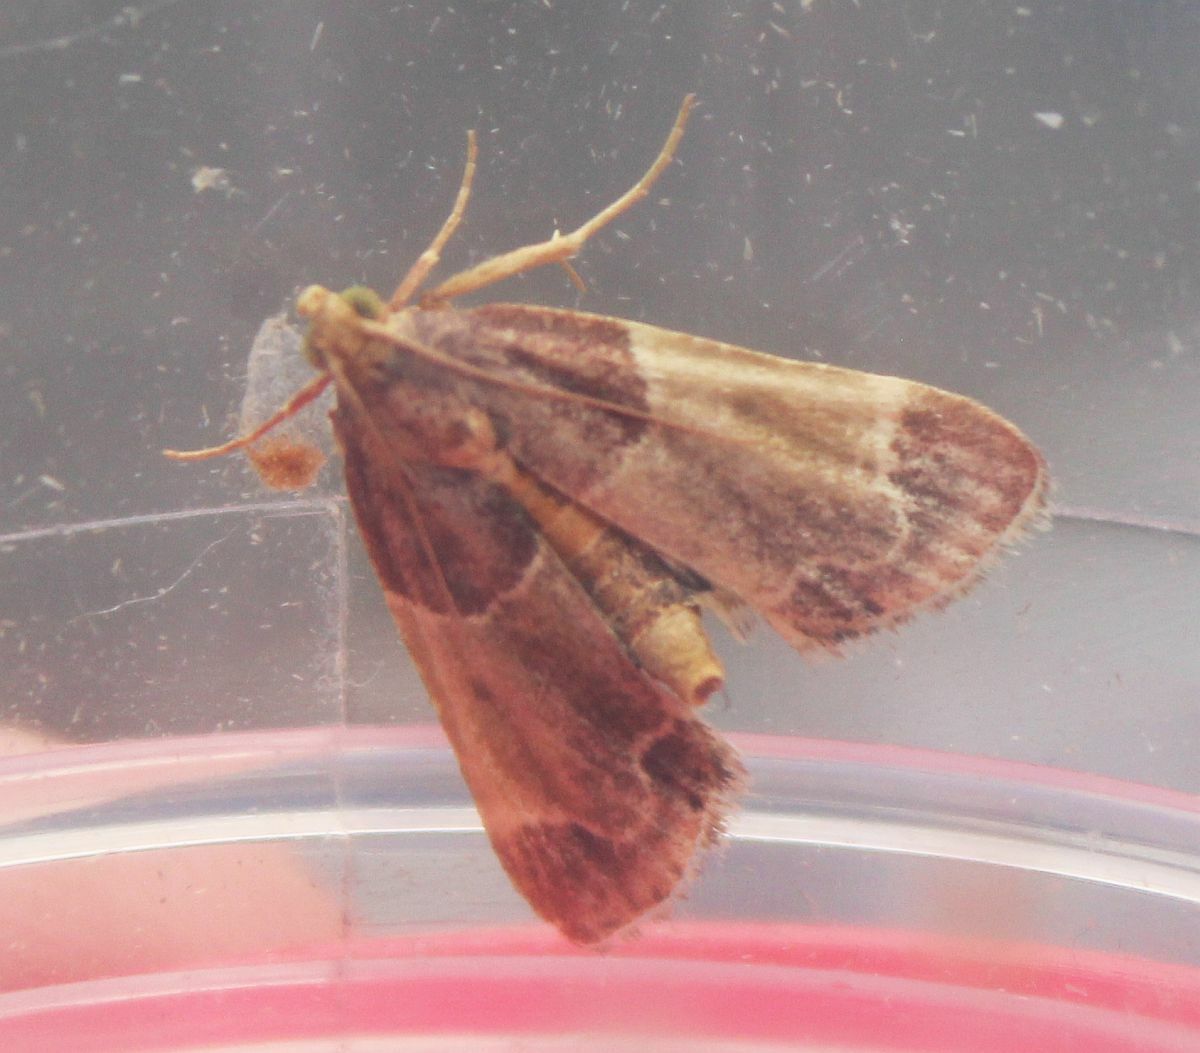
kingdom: Animalia
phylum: Arthropoda
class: Insecta
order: Lepidoptera
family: Pyralidae
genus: Pyralis
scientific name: Pyralis farinalis
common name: Meal moth
